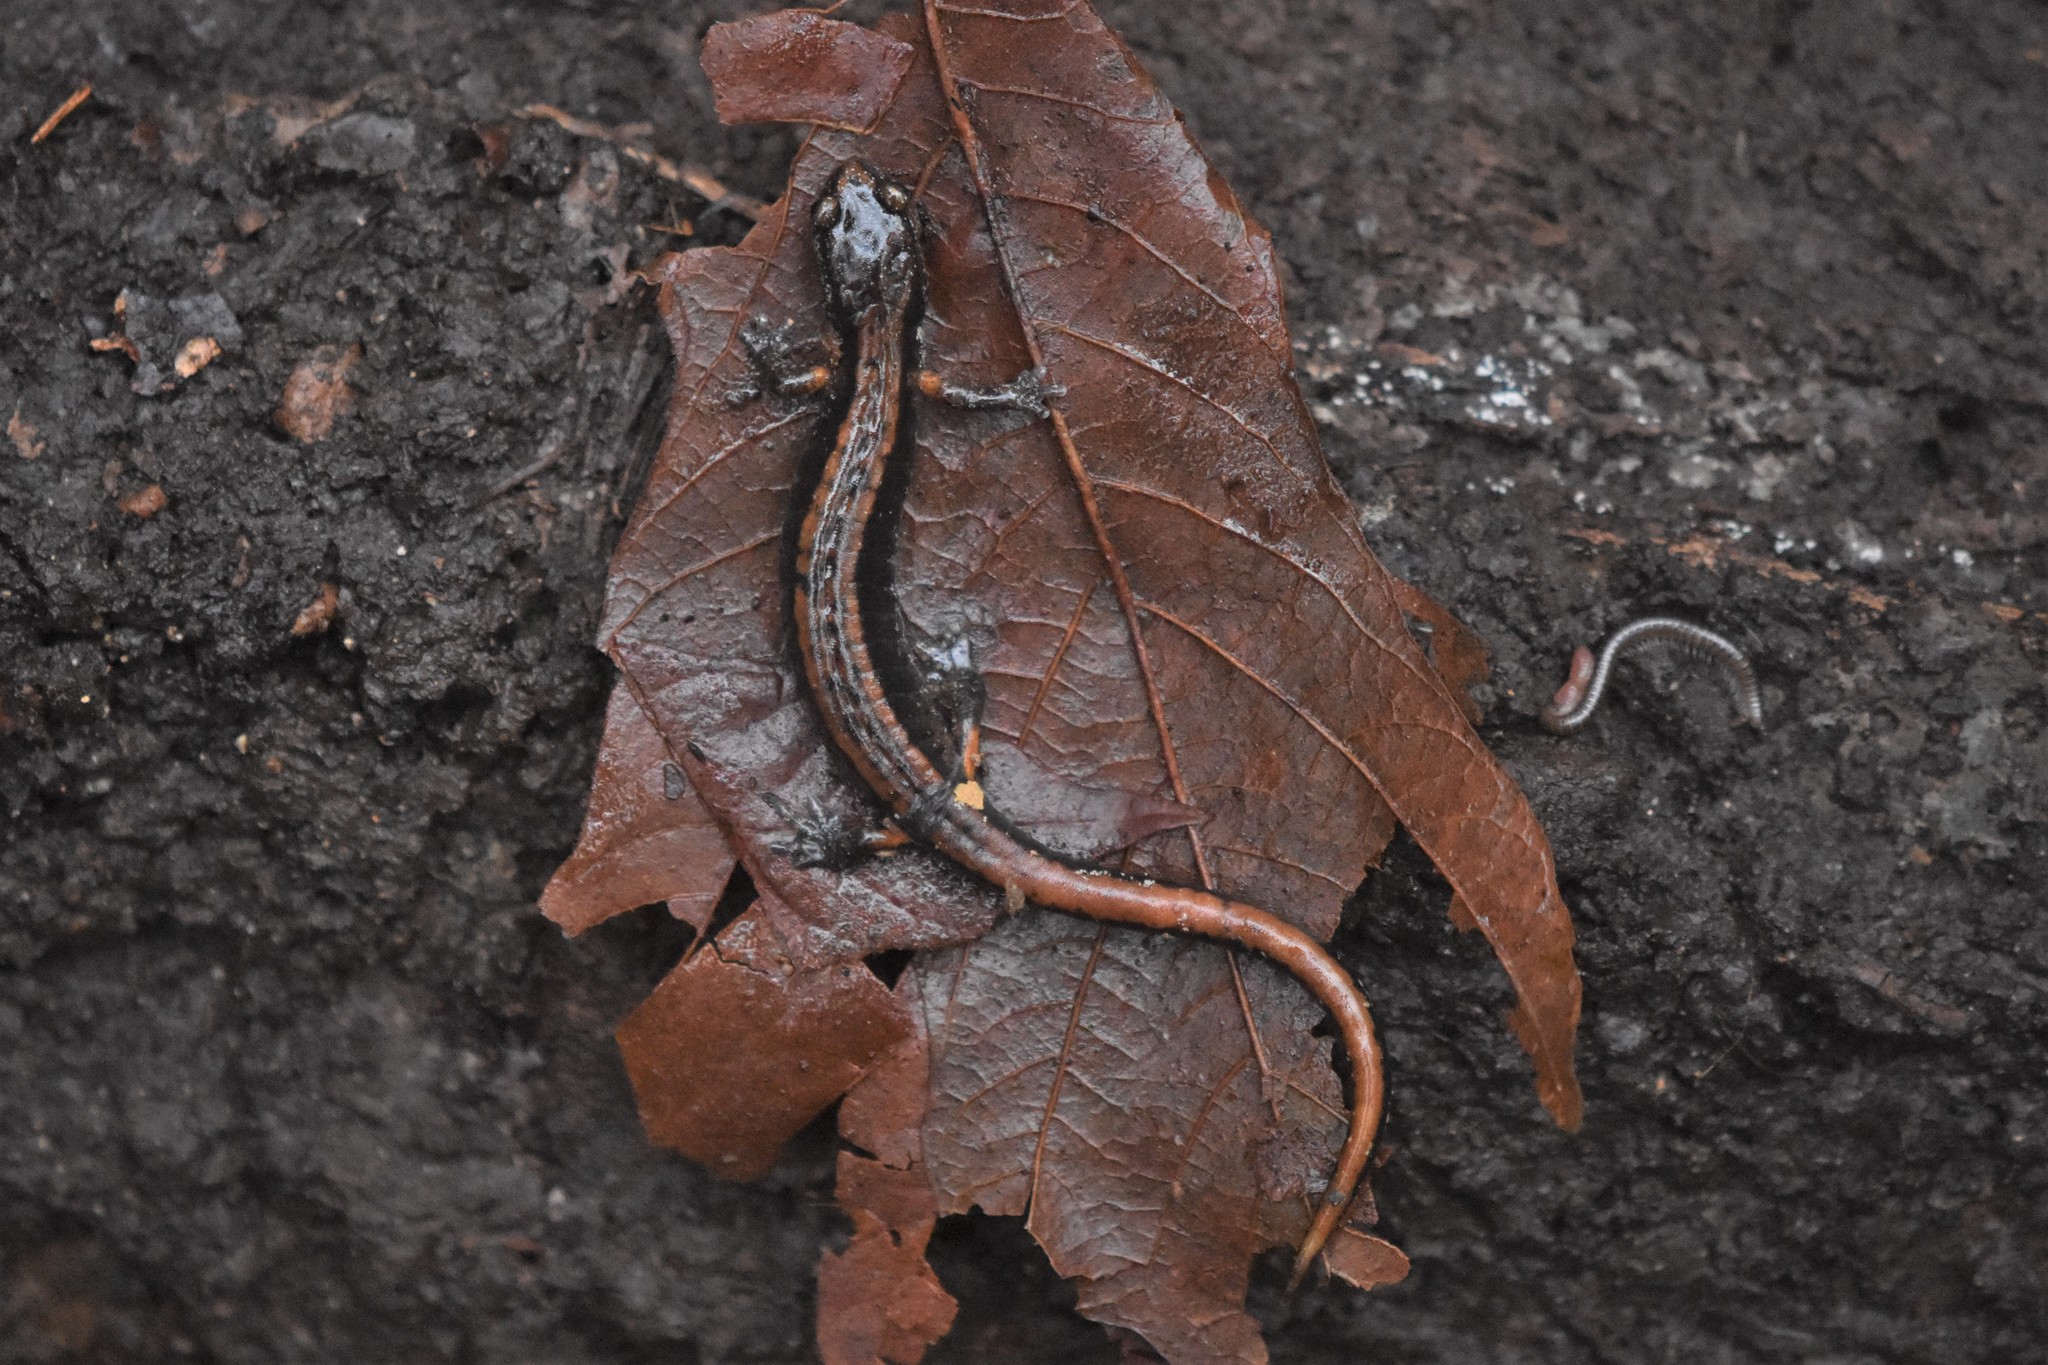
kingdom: Animalia
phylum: Chordata
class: Amphibia
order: Caudata
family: Plethodontidae
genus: Plethodon
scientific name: Plethodon vehiculum
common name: Western red-backed salamander
